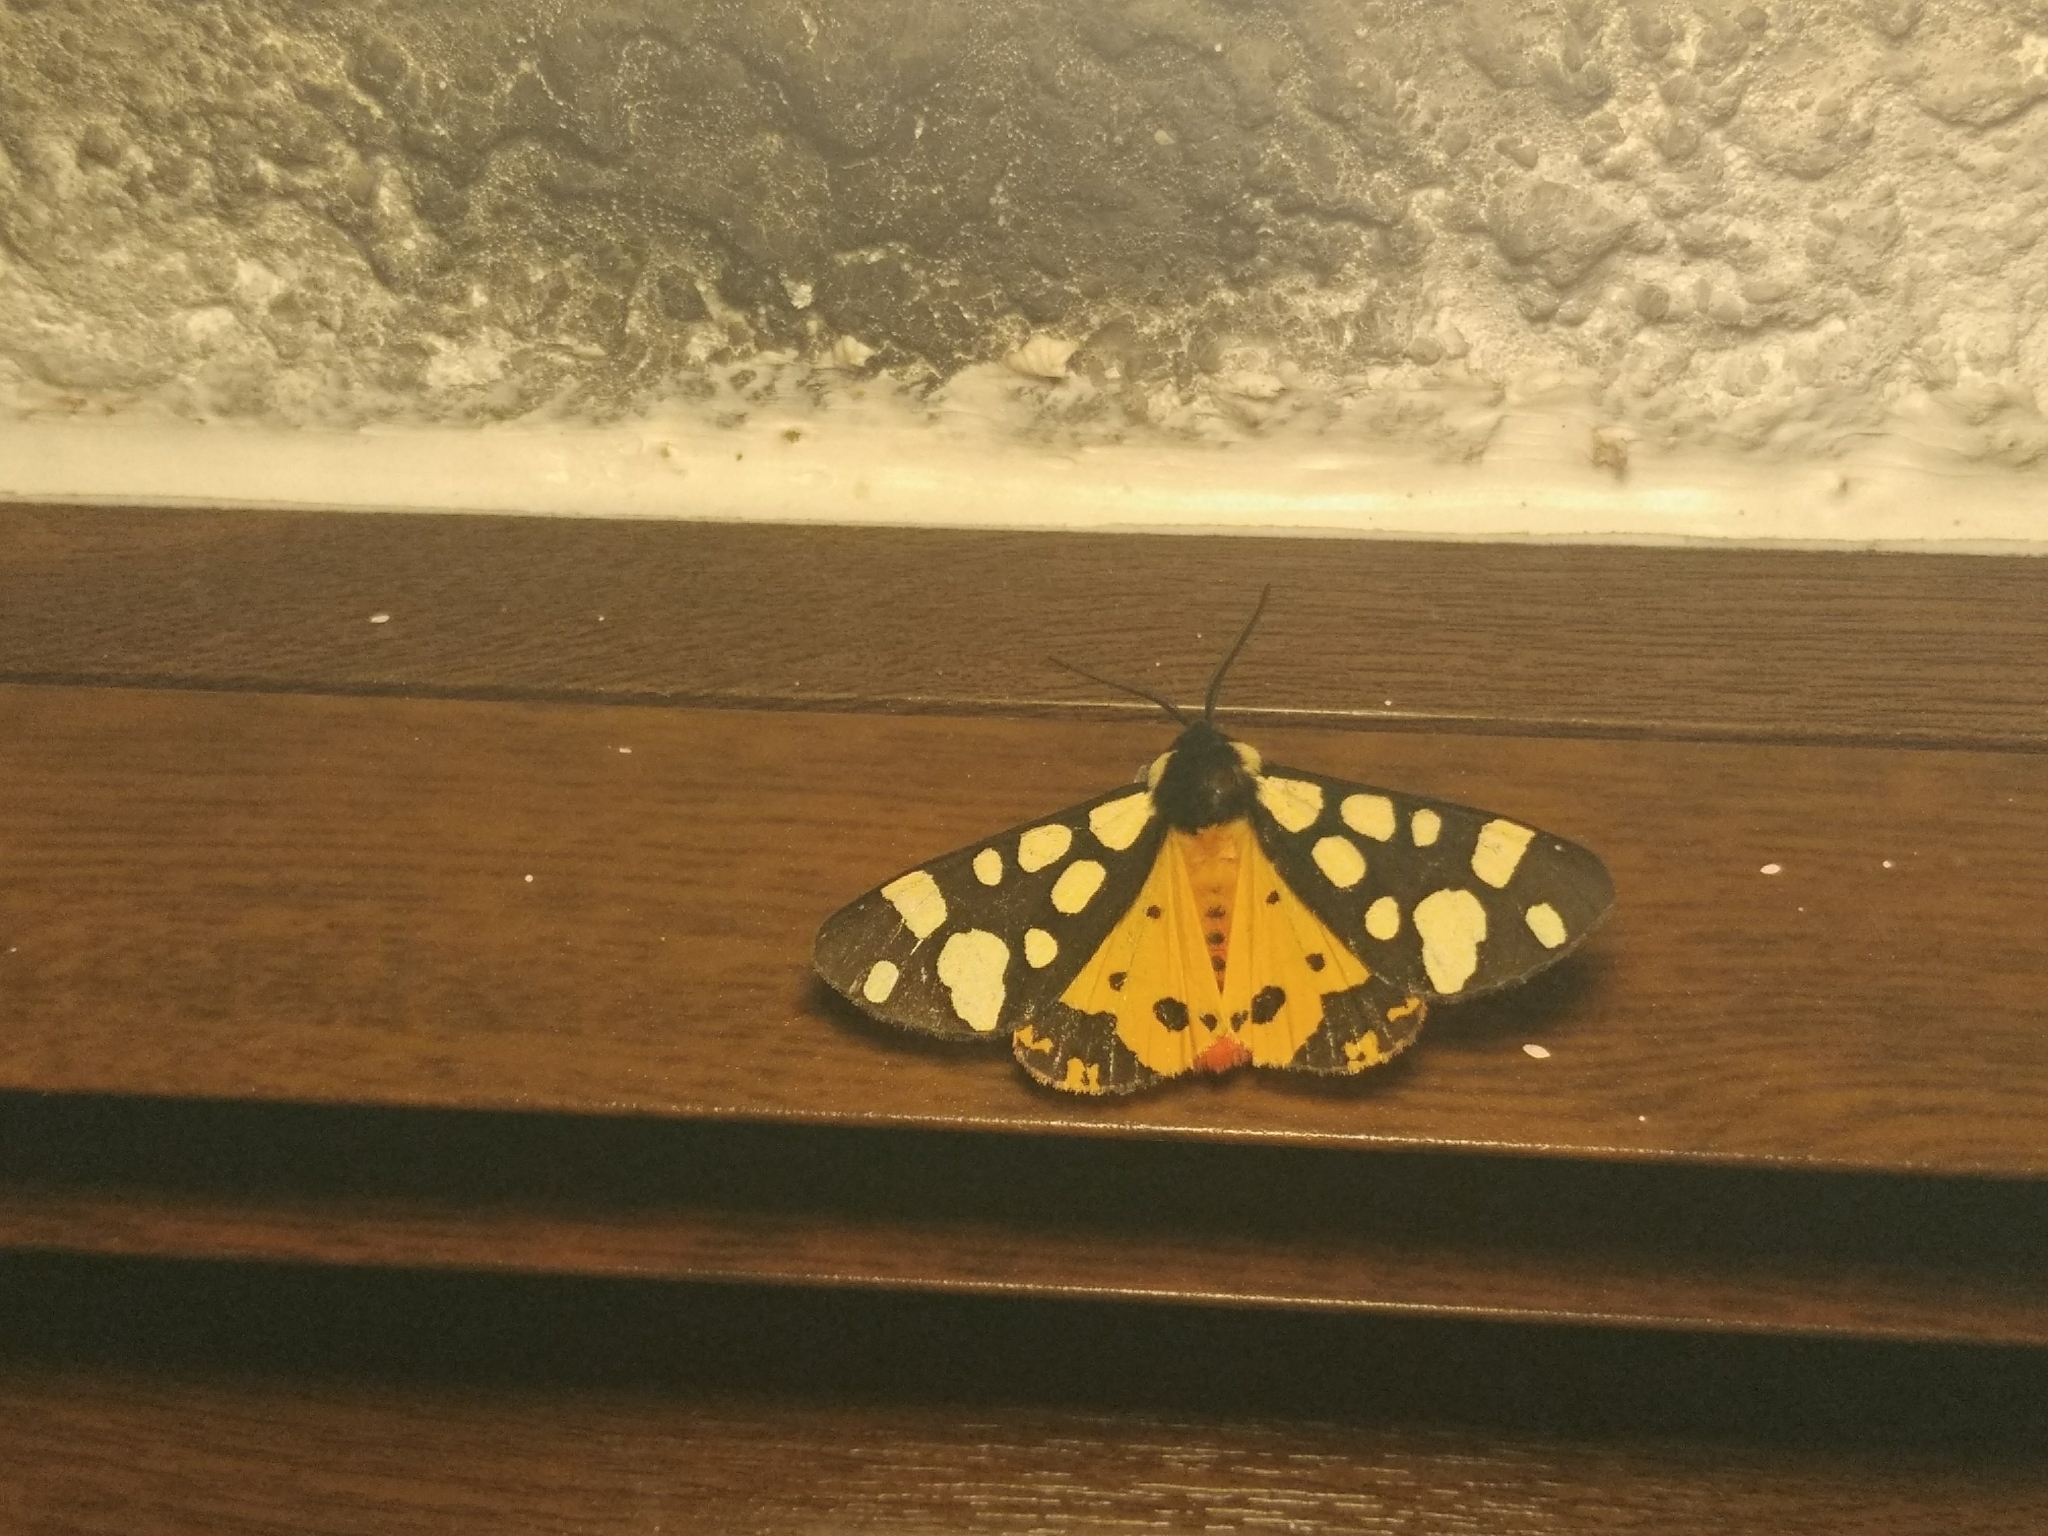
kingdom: Animalia
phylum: Arthropoda
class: Insecta
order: Lepidoptera
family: Erebidae
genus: Epicallia
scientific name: Epicallia villica
